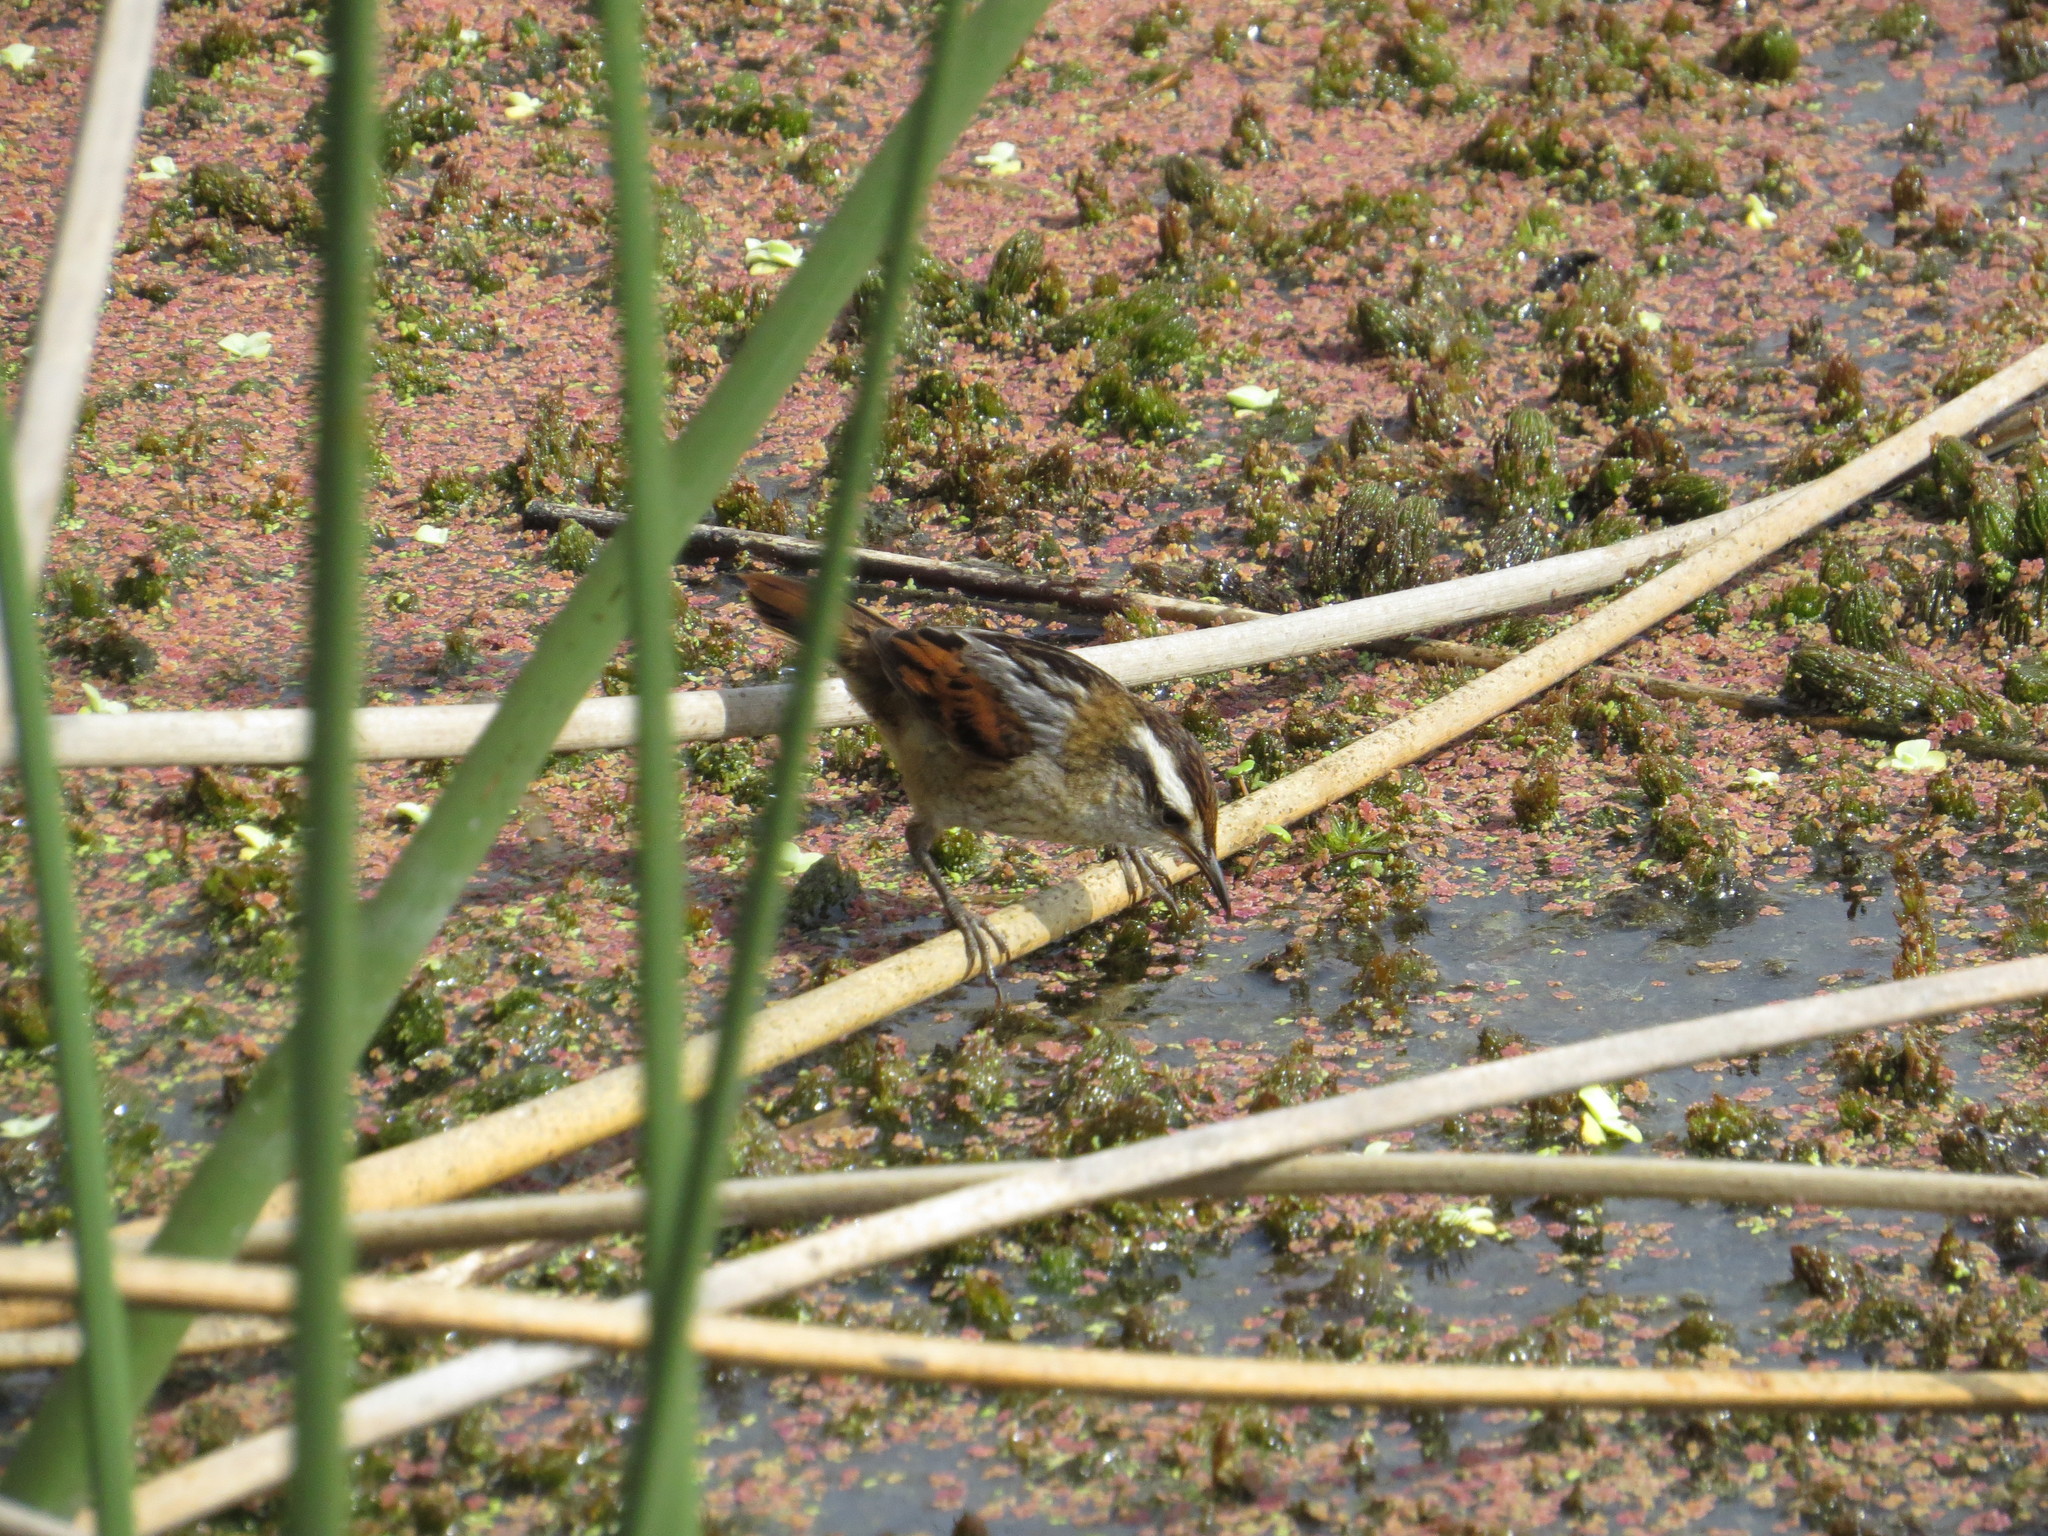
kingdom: Animalia
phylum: Chordata
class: Aves
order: Passeriformes
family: Furnariidae
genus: Phleocryptes
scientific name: Phleocryptes melanops
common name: Wren-like rushbird
